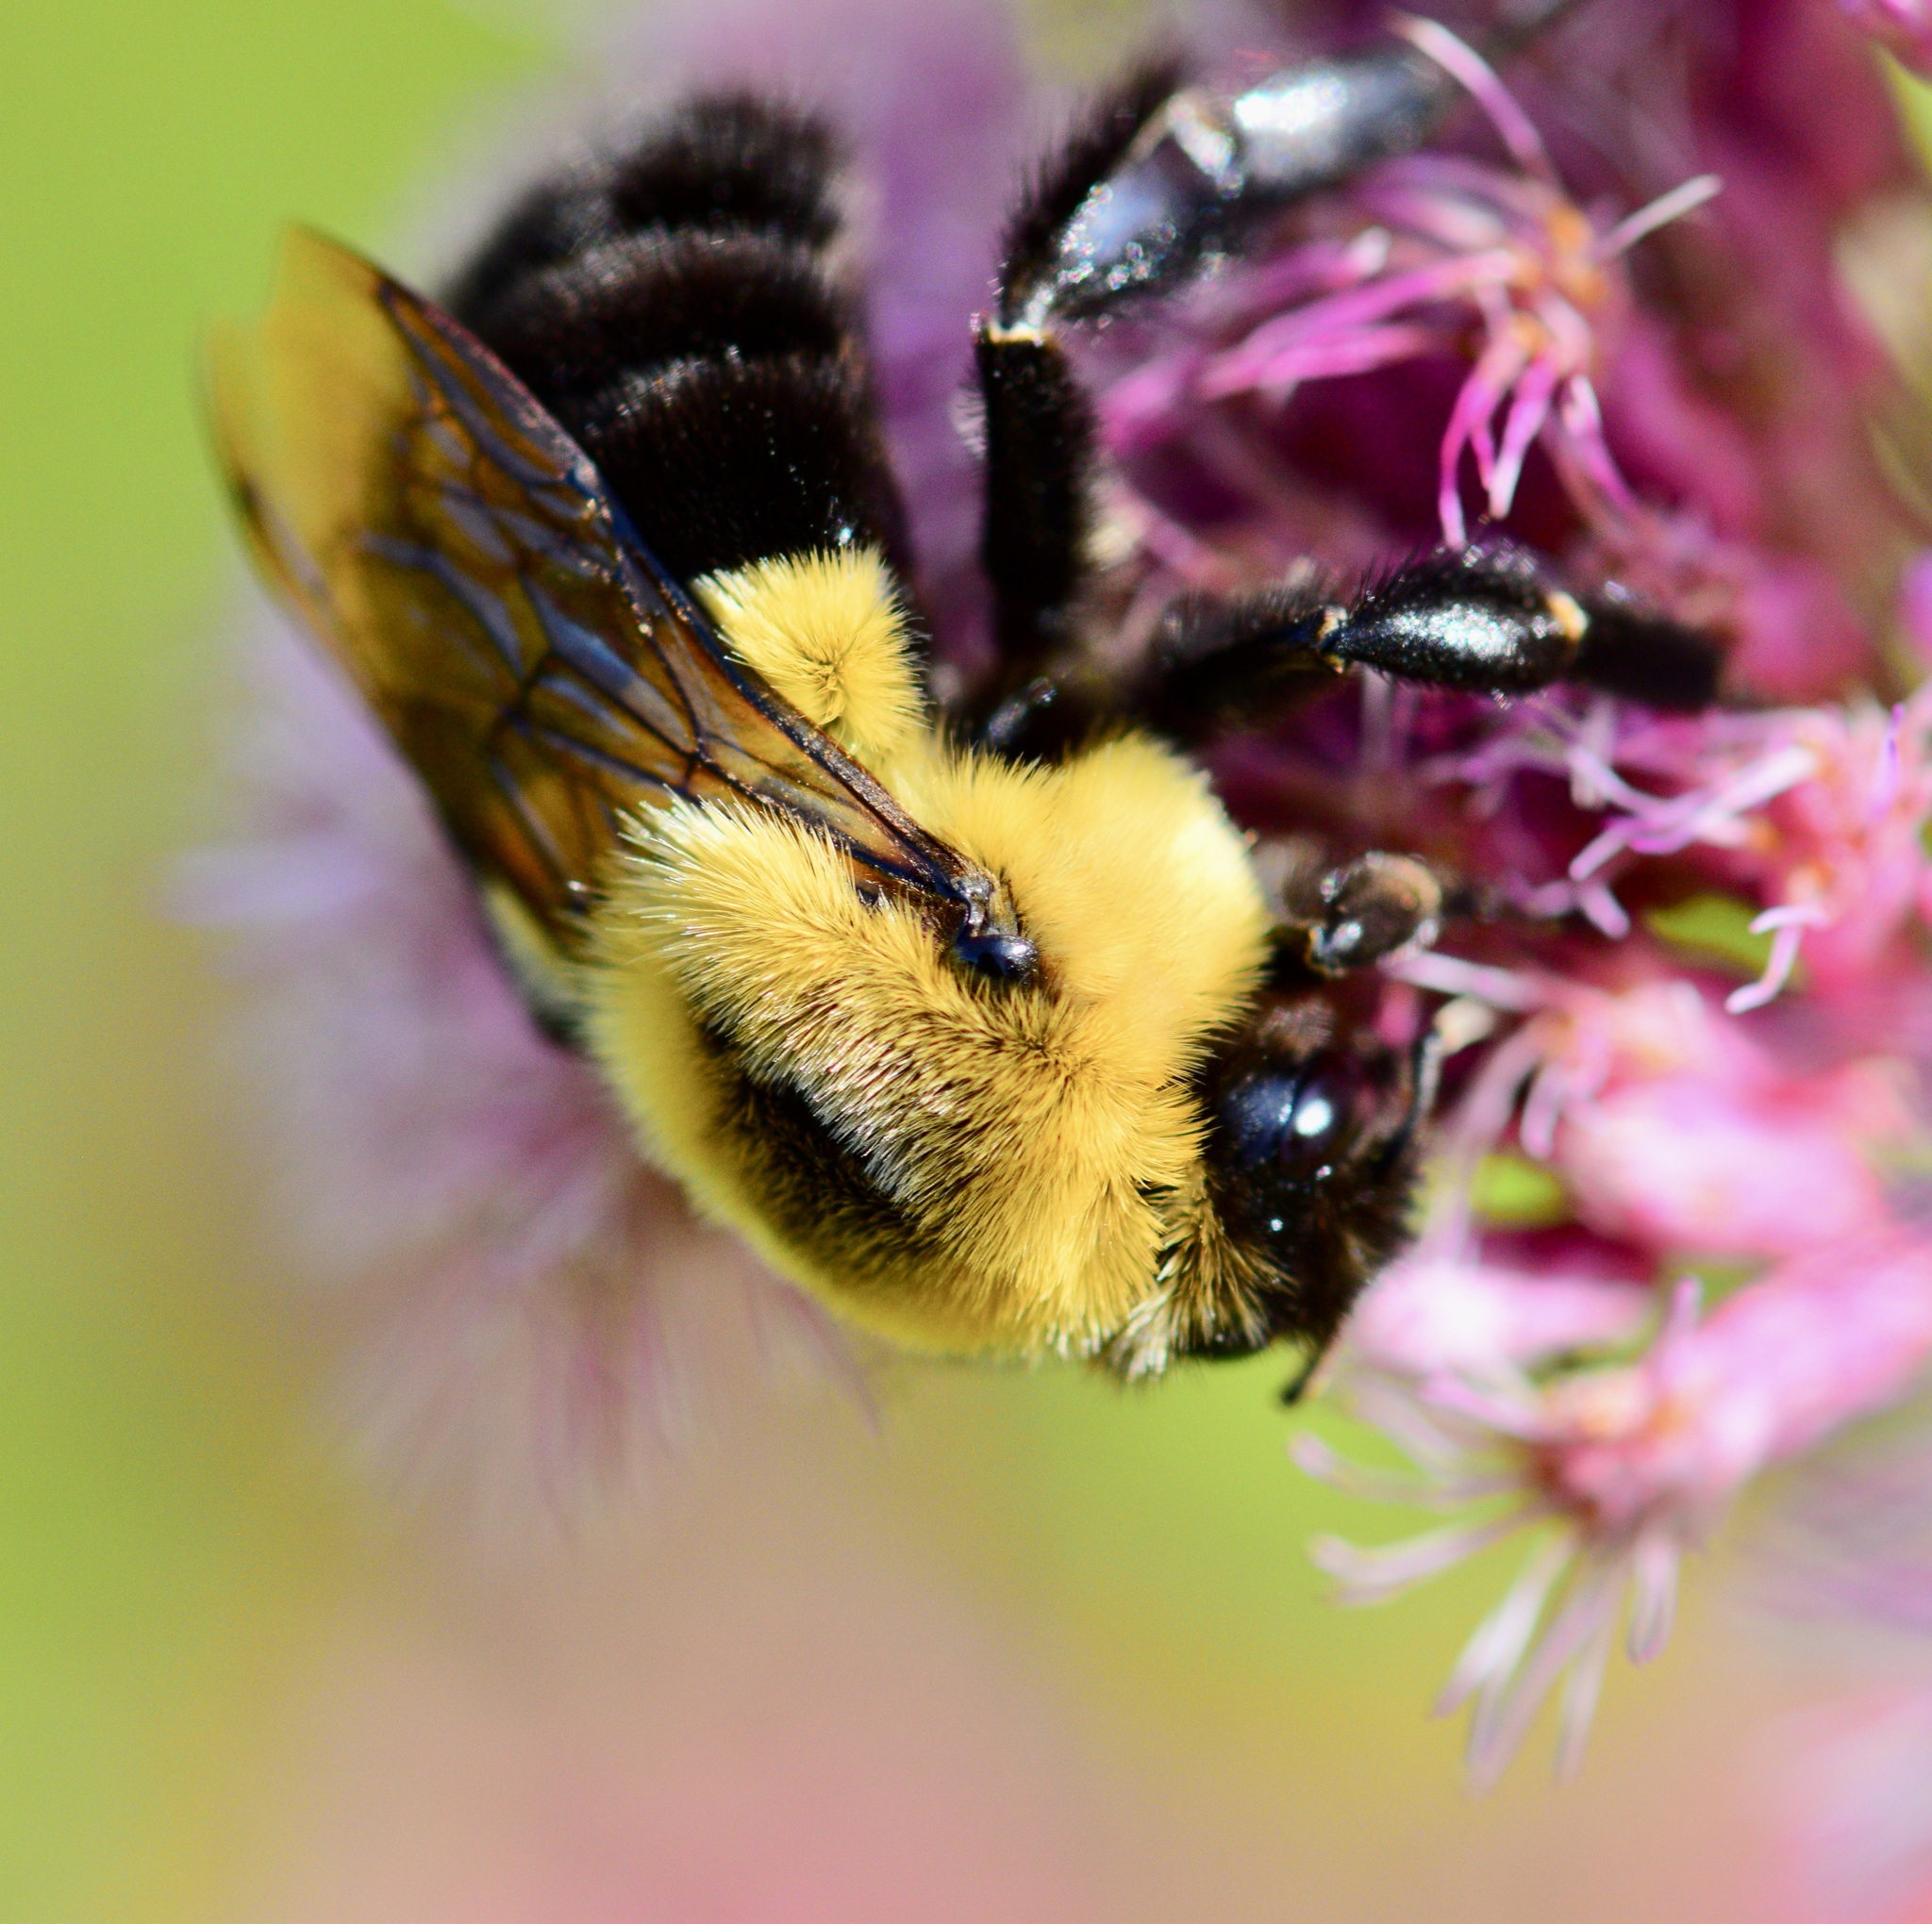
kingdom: Animalia
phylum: Arthropoda
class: Insecta
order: Hymenoptera
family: Apidae
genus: Bombus
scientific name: Bombus impatiens
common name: Common eastern bumble bee
